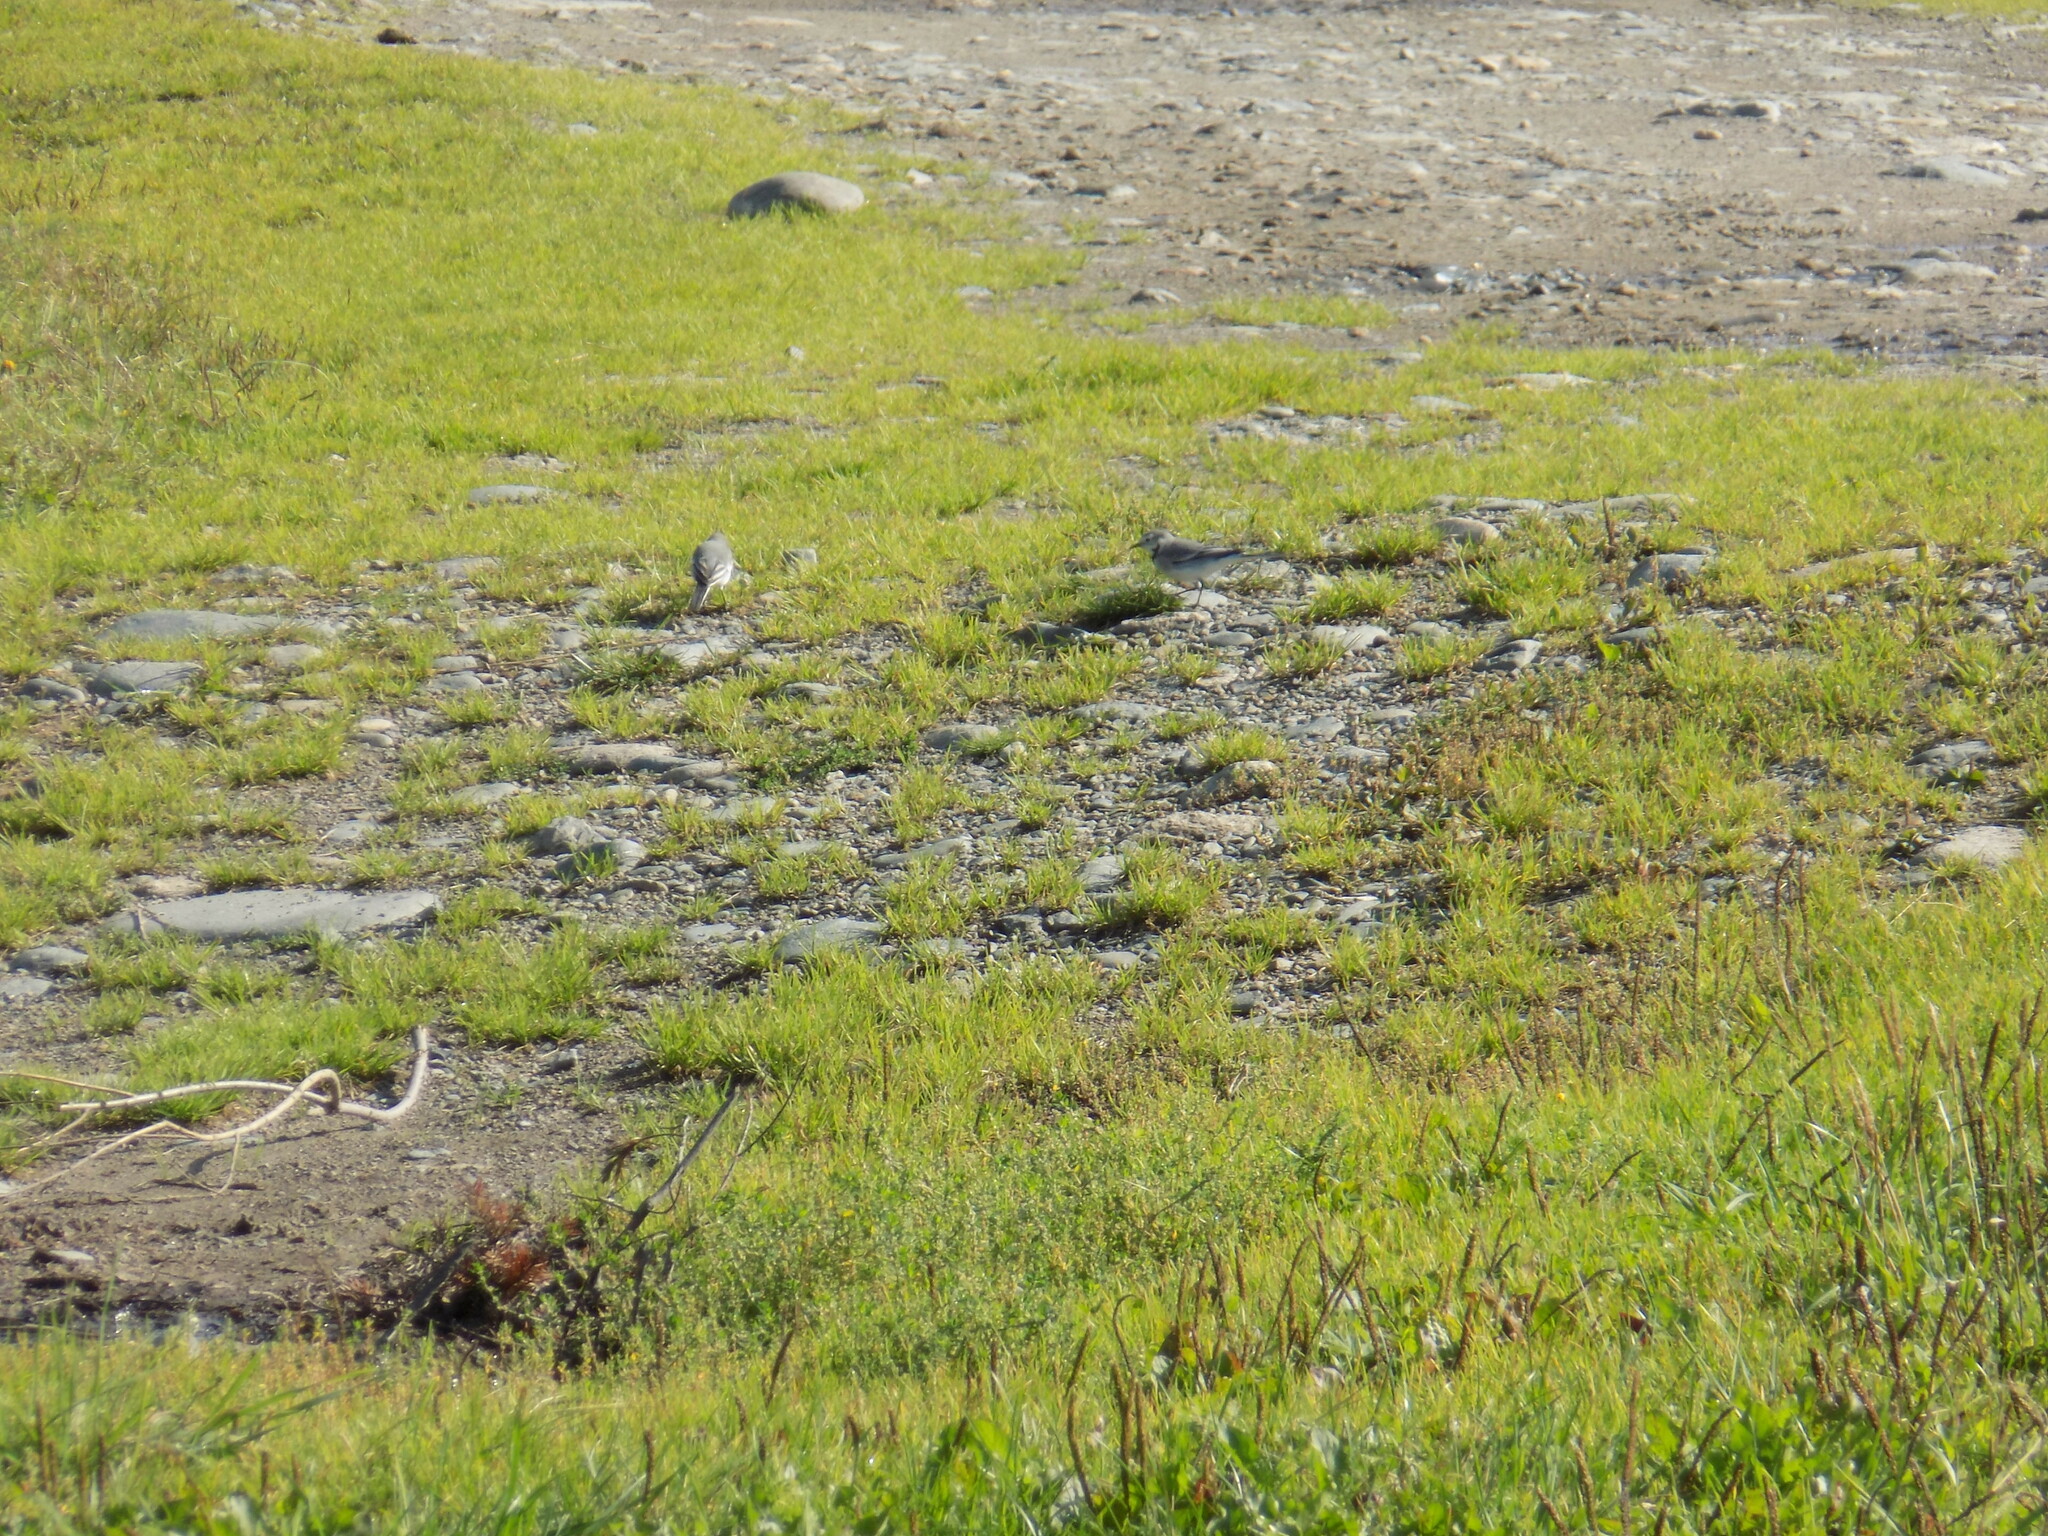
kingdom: Animalia
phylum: Chordata
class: Aves
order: Passeriformes
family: Motacillidae
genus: Motacilla
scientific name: Motacilla alba
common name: White wagtail
